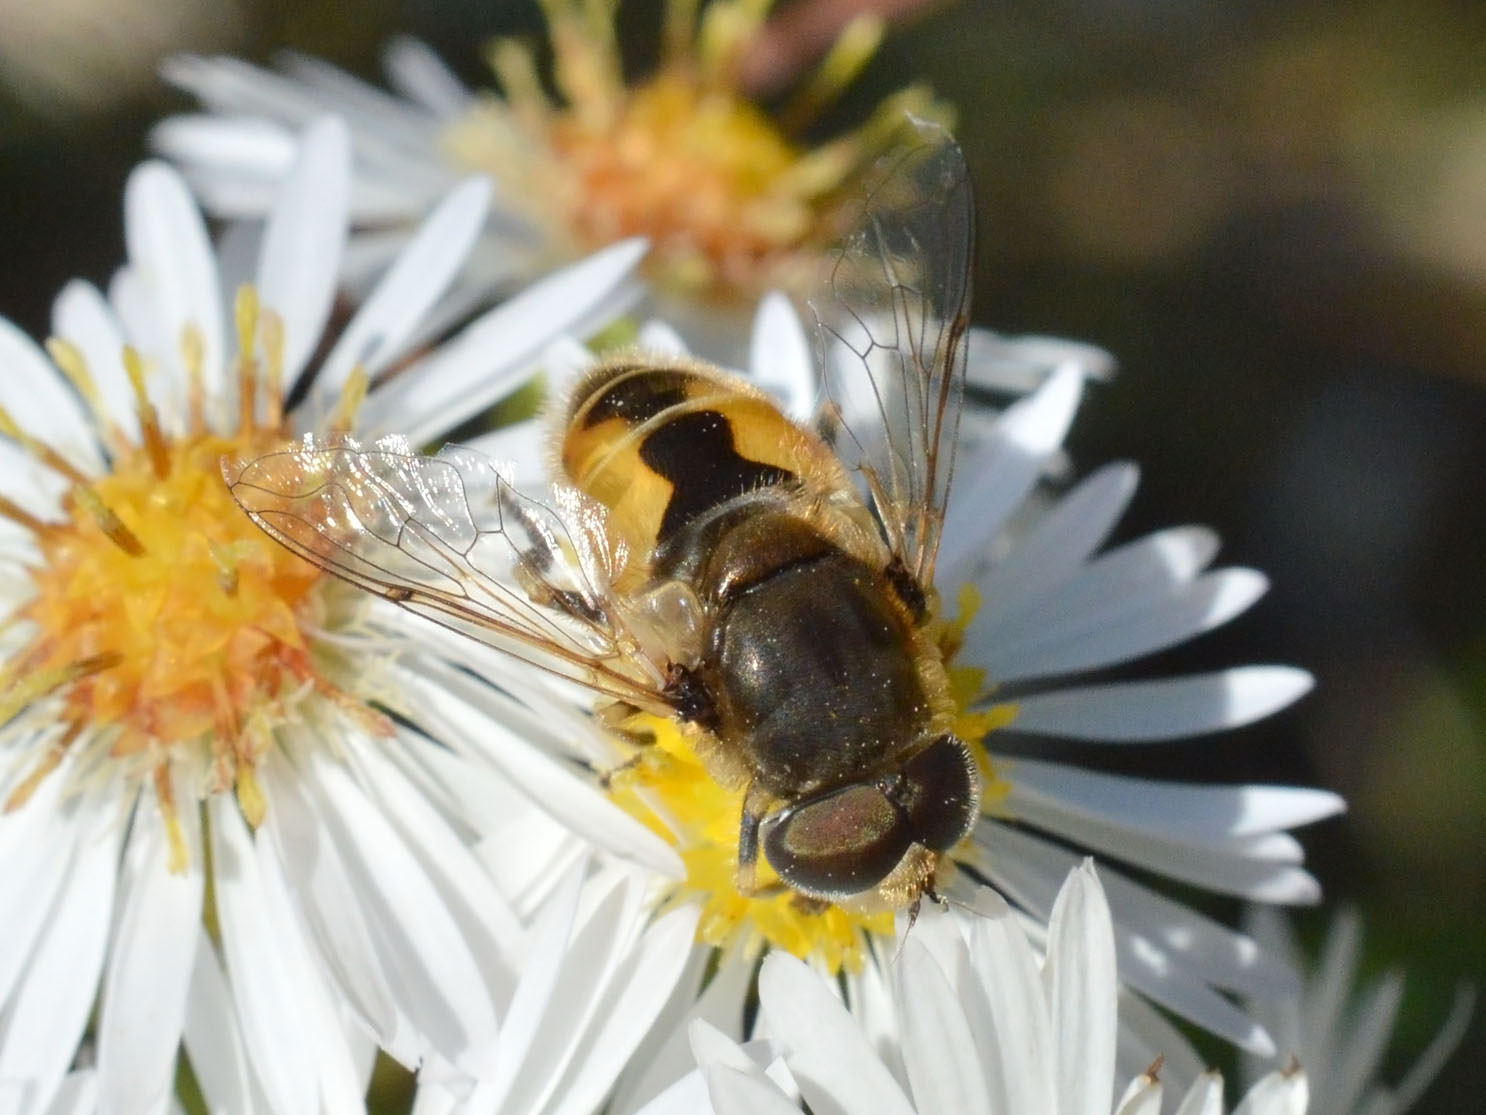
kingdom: Animalia
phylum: Arthropoda
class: Insecta
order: Diptera
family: Syrphidae
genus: Eristalis
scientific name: Eristalis arbustorum
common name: Hover fly
